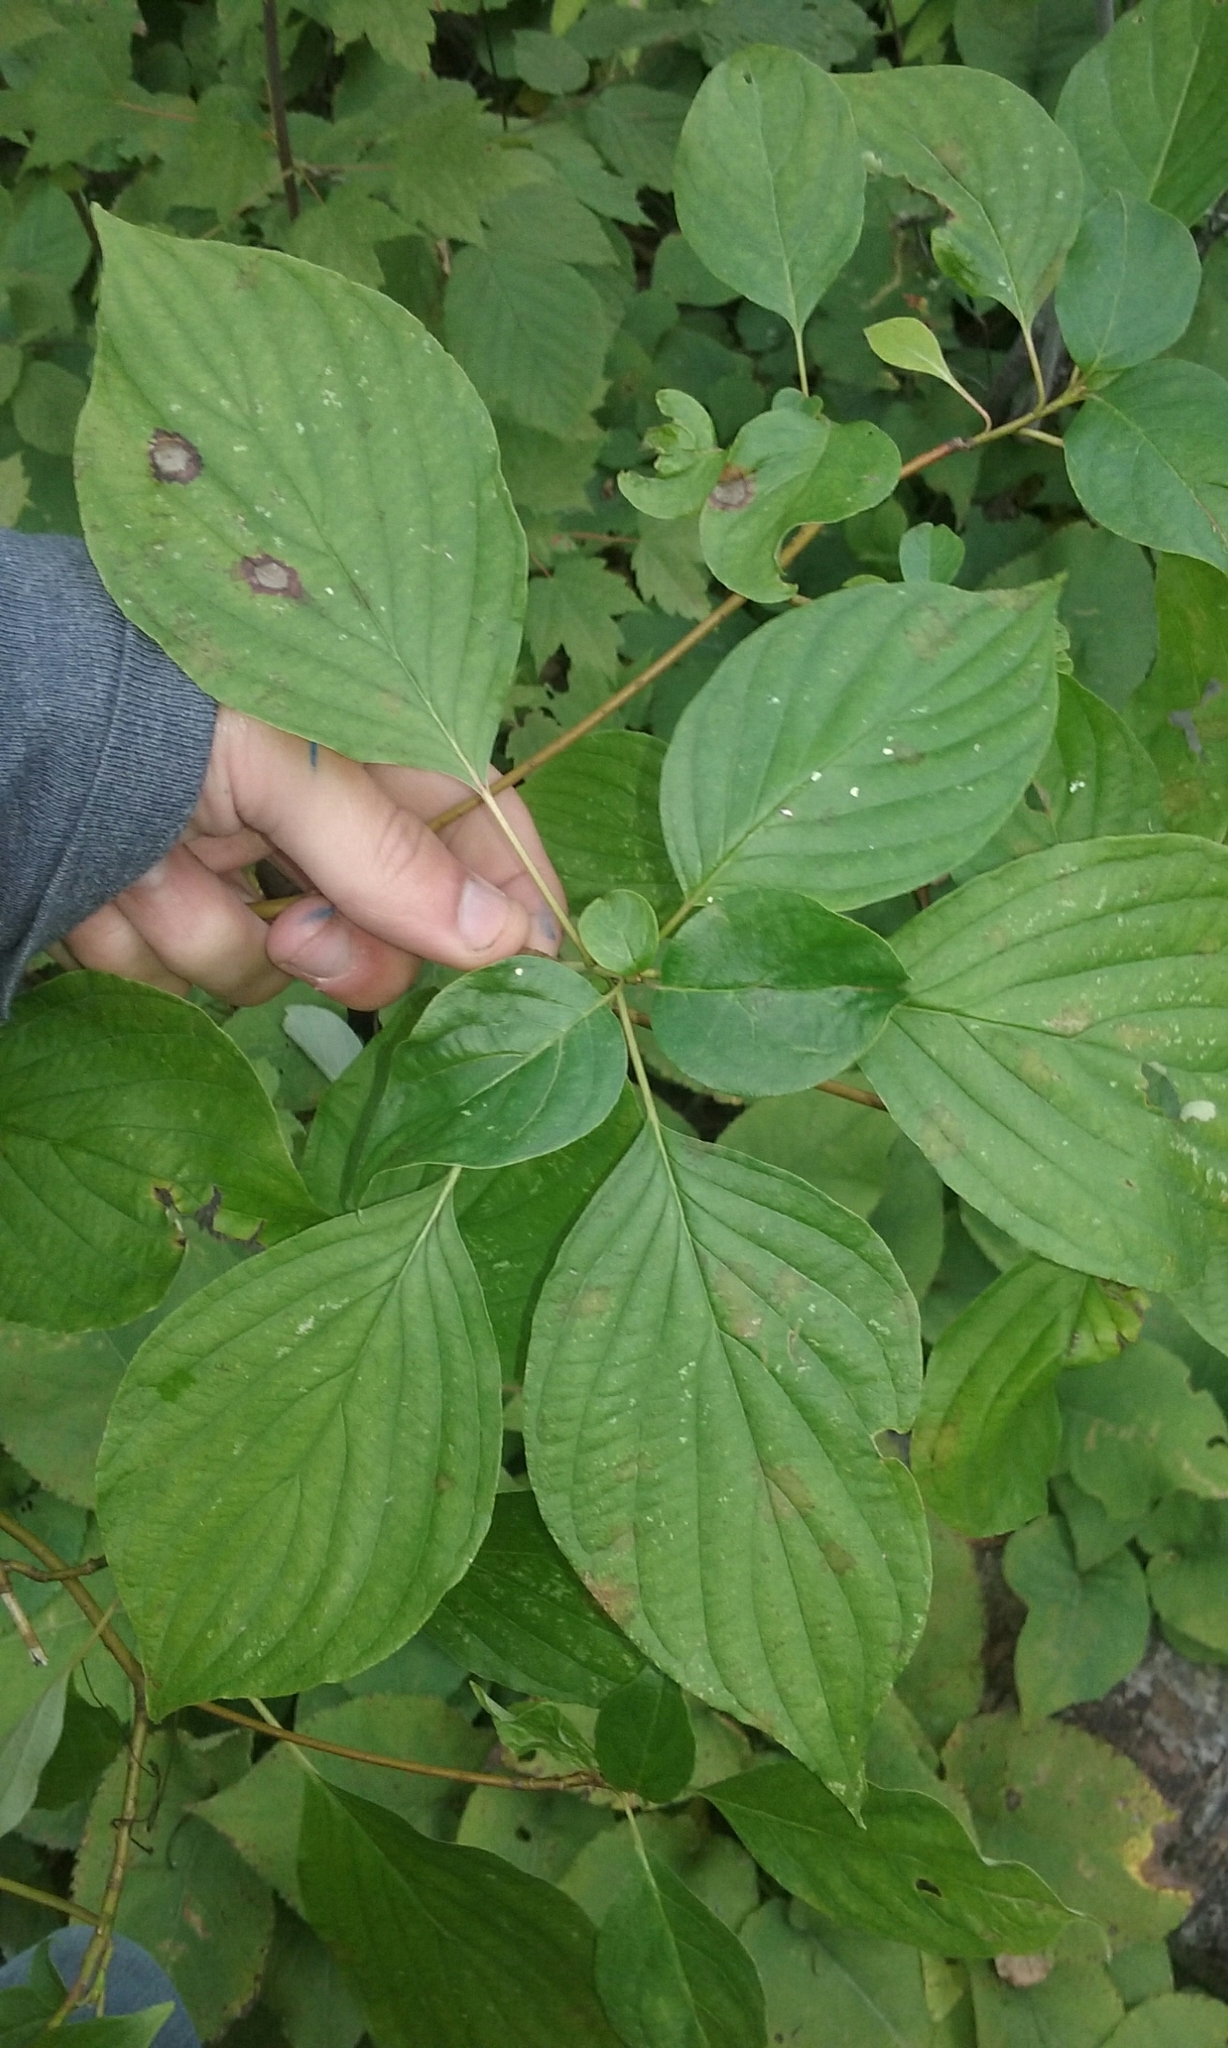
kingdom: Plantae
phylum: Tracheophyta
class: Magnoliopsida
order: Cornales
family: Cornaceae
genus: Cornus
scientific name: Cornus alternifolia
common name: Pagoda dogwood
